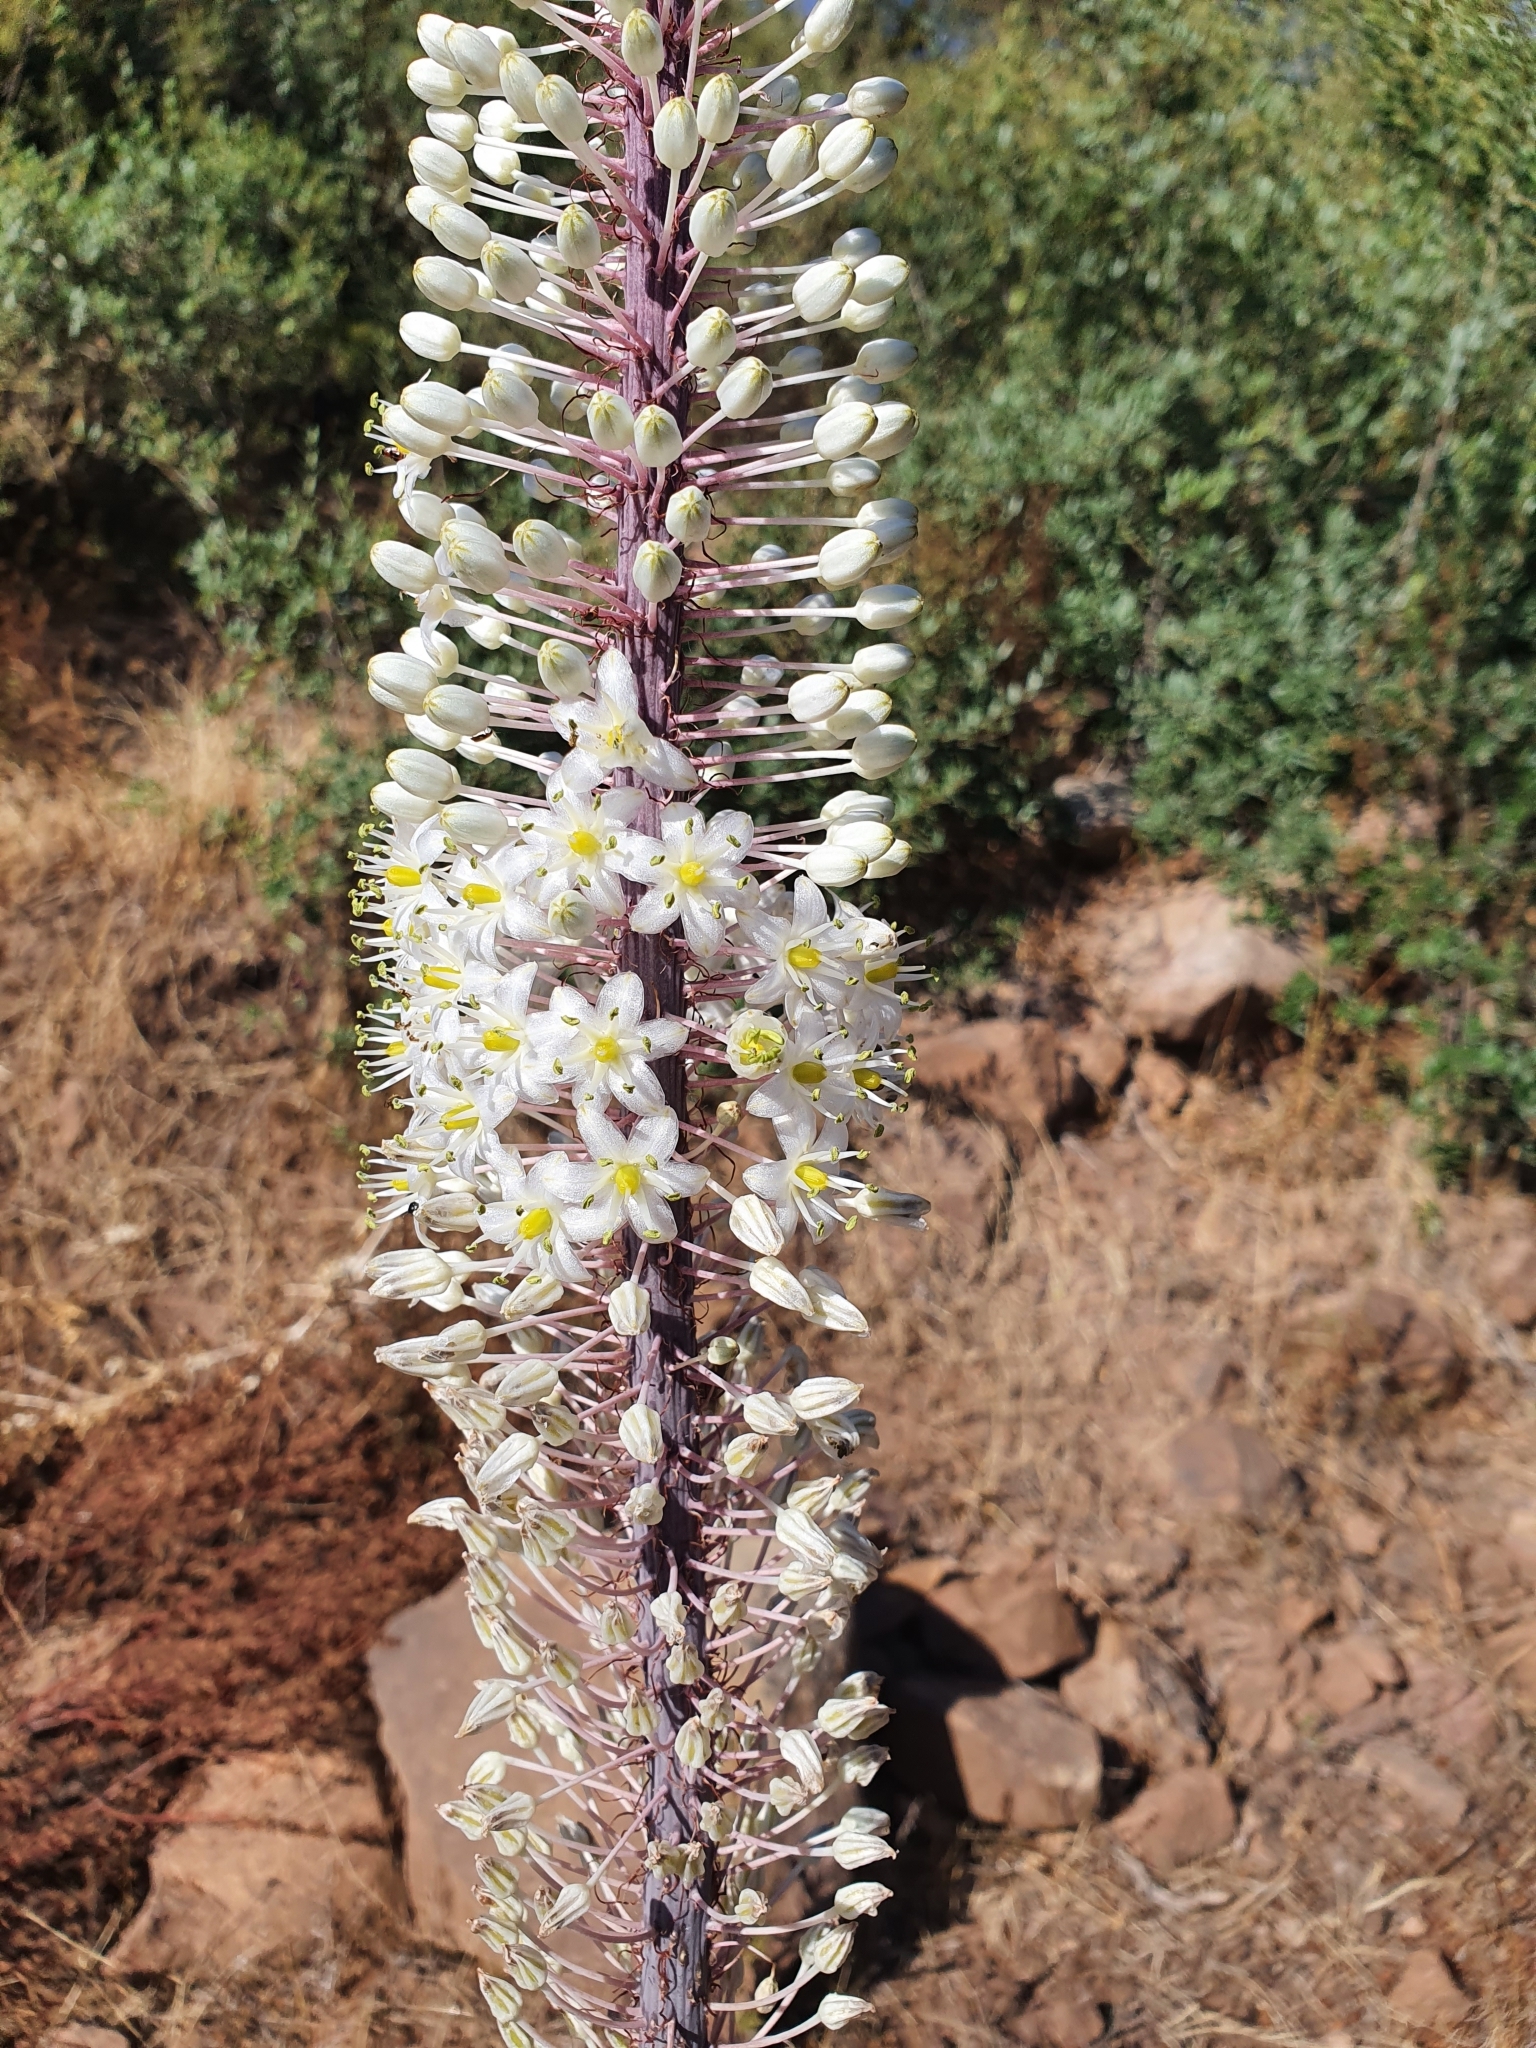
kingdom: Plantae
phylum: Tracheophyta
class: Liliopsida
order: Asparagales
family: Asparagaceae
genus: Drimia
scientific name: Drimia numidica
